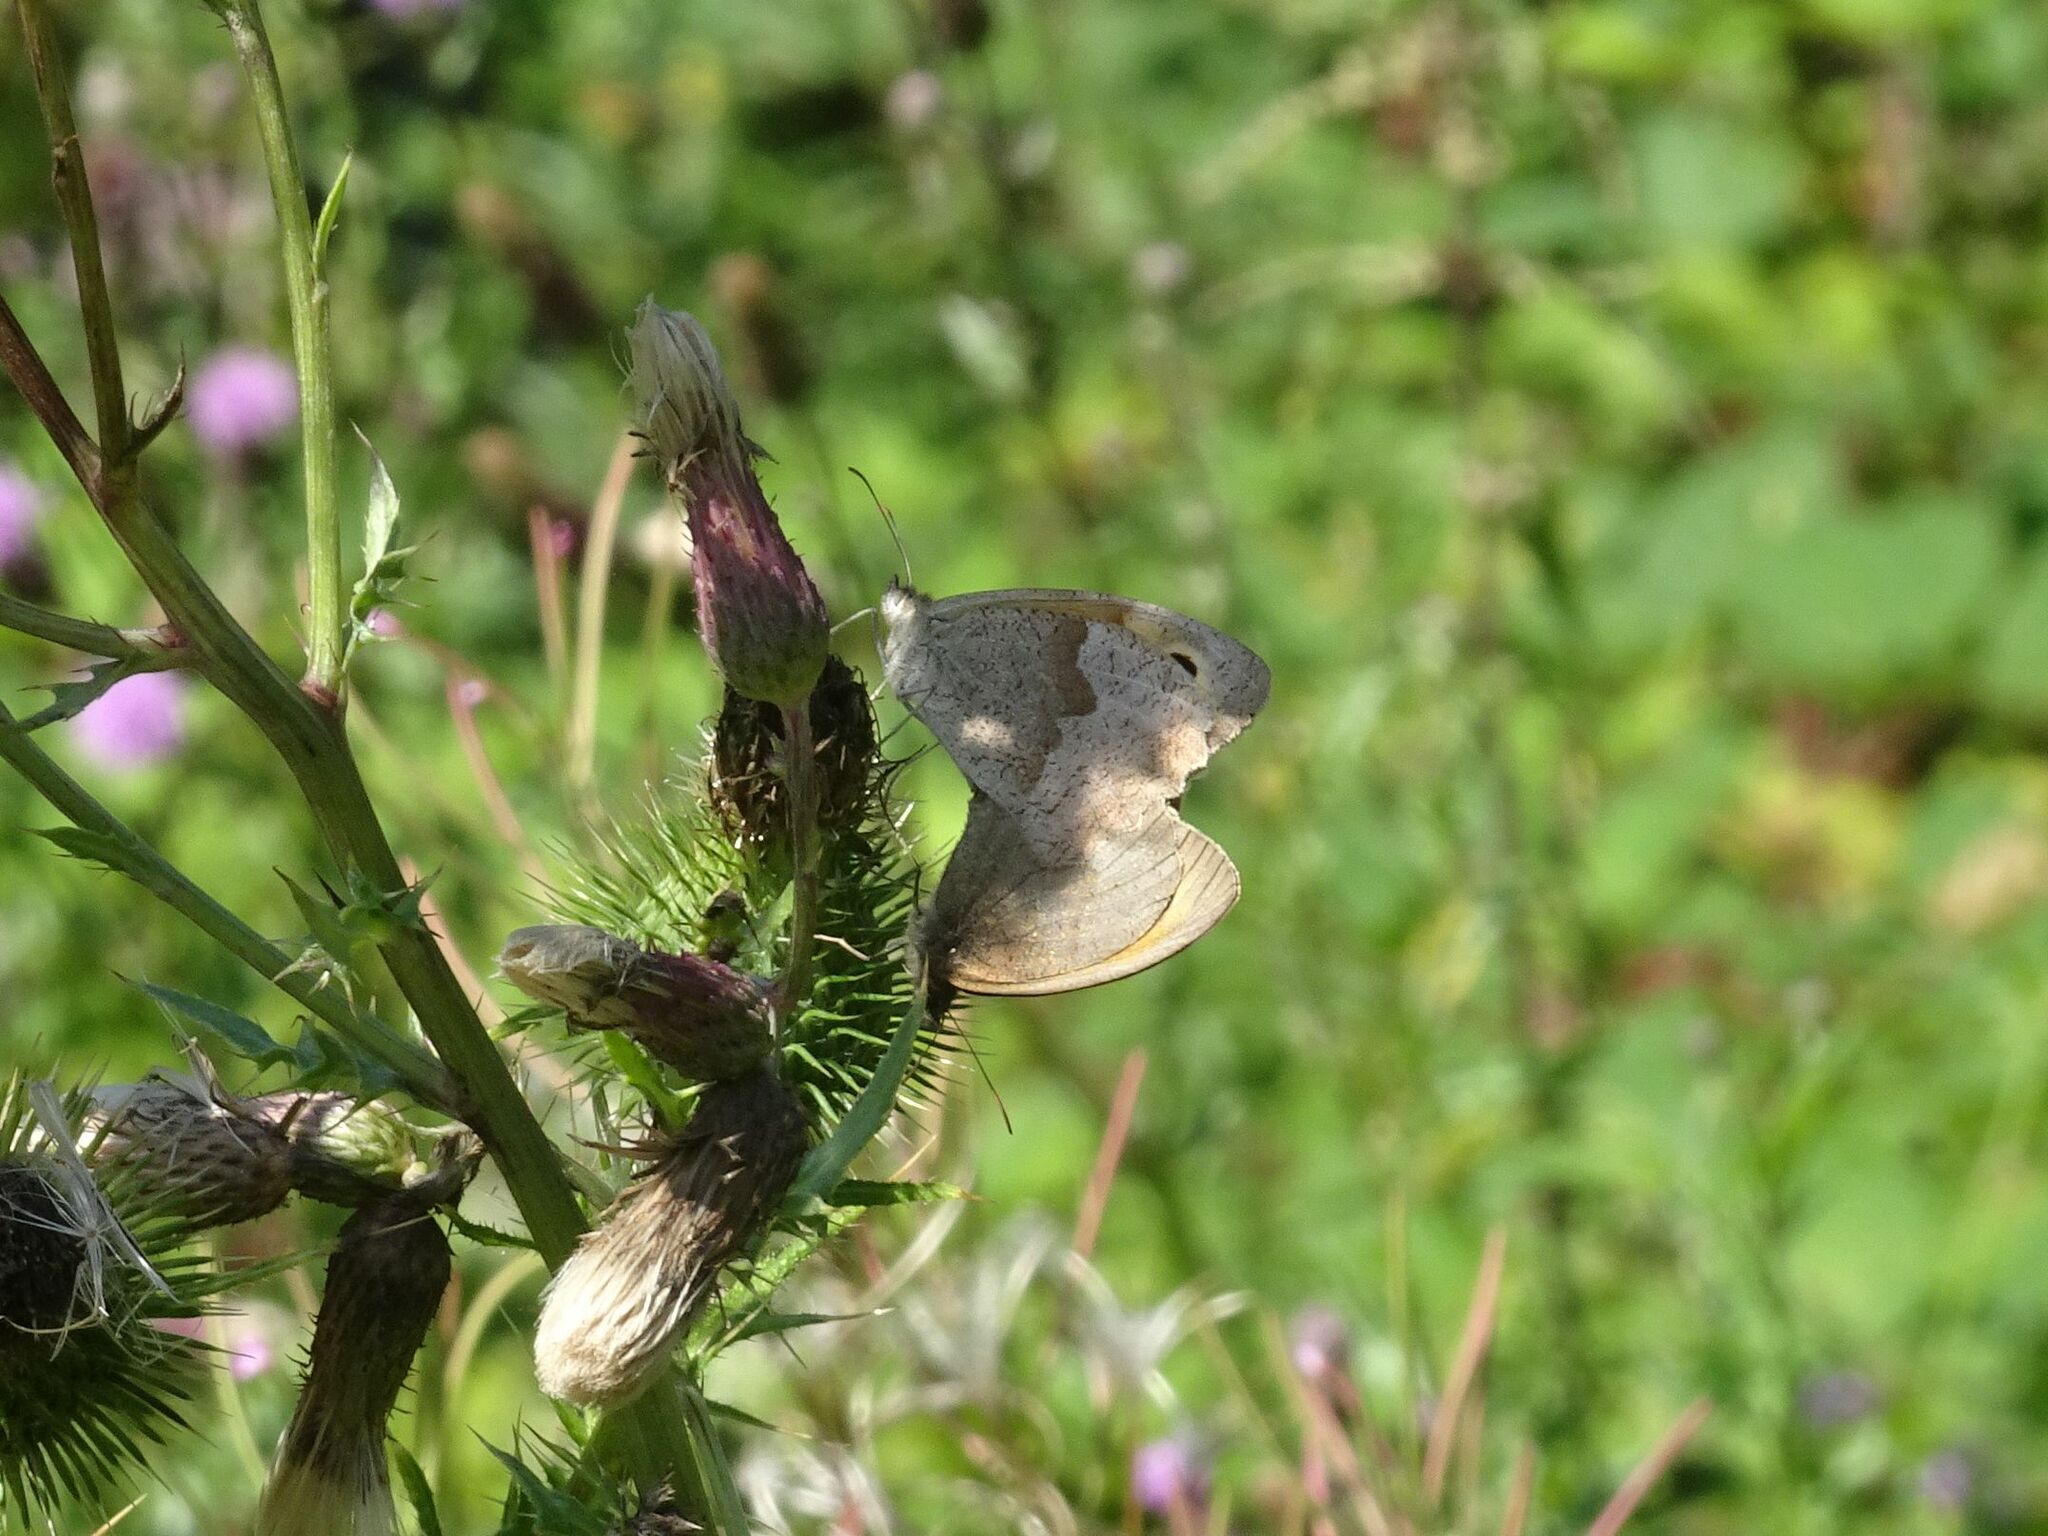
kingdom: Animalia
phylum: Arthropoda
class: Insecta
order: Lepidoptera
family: Nymphalidae
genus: Maniola
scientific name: Maniola jurtina
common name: Meadow brown
